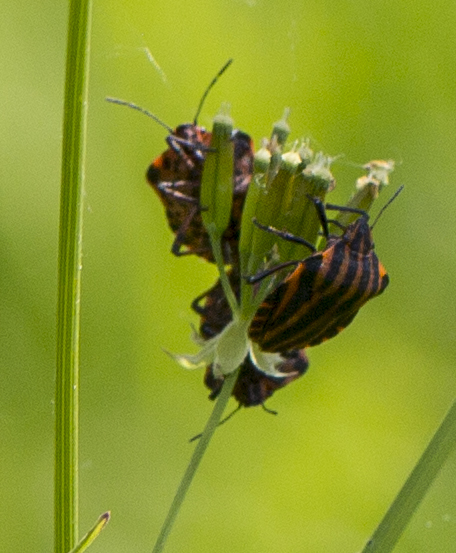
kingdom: Animalia
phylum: Arthropoda
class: Insecta
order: Hemiptera
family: Pentatomidae
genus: Graphosoma
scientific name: Graphosoma italicum
